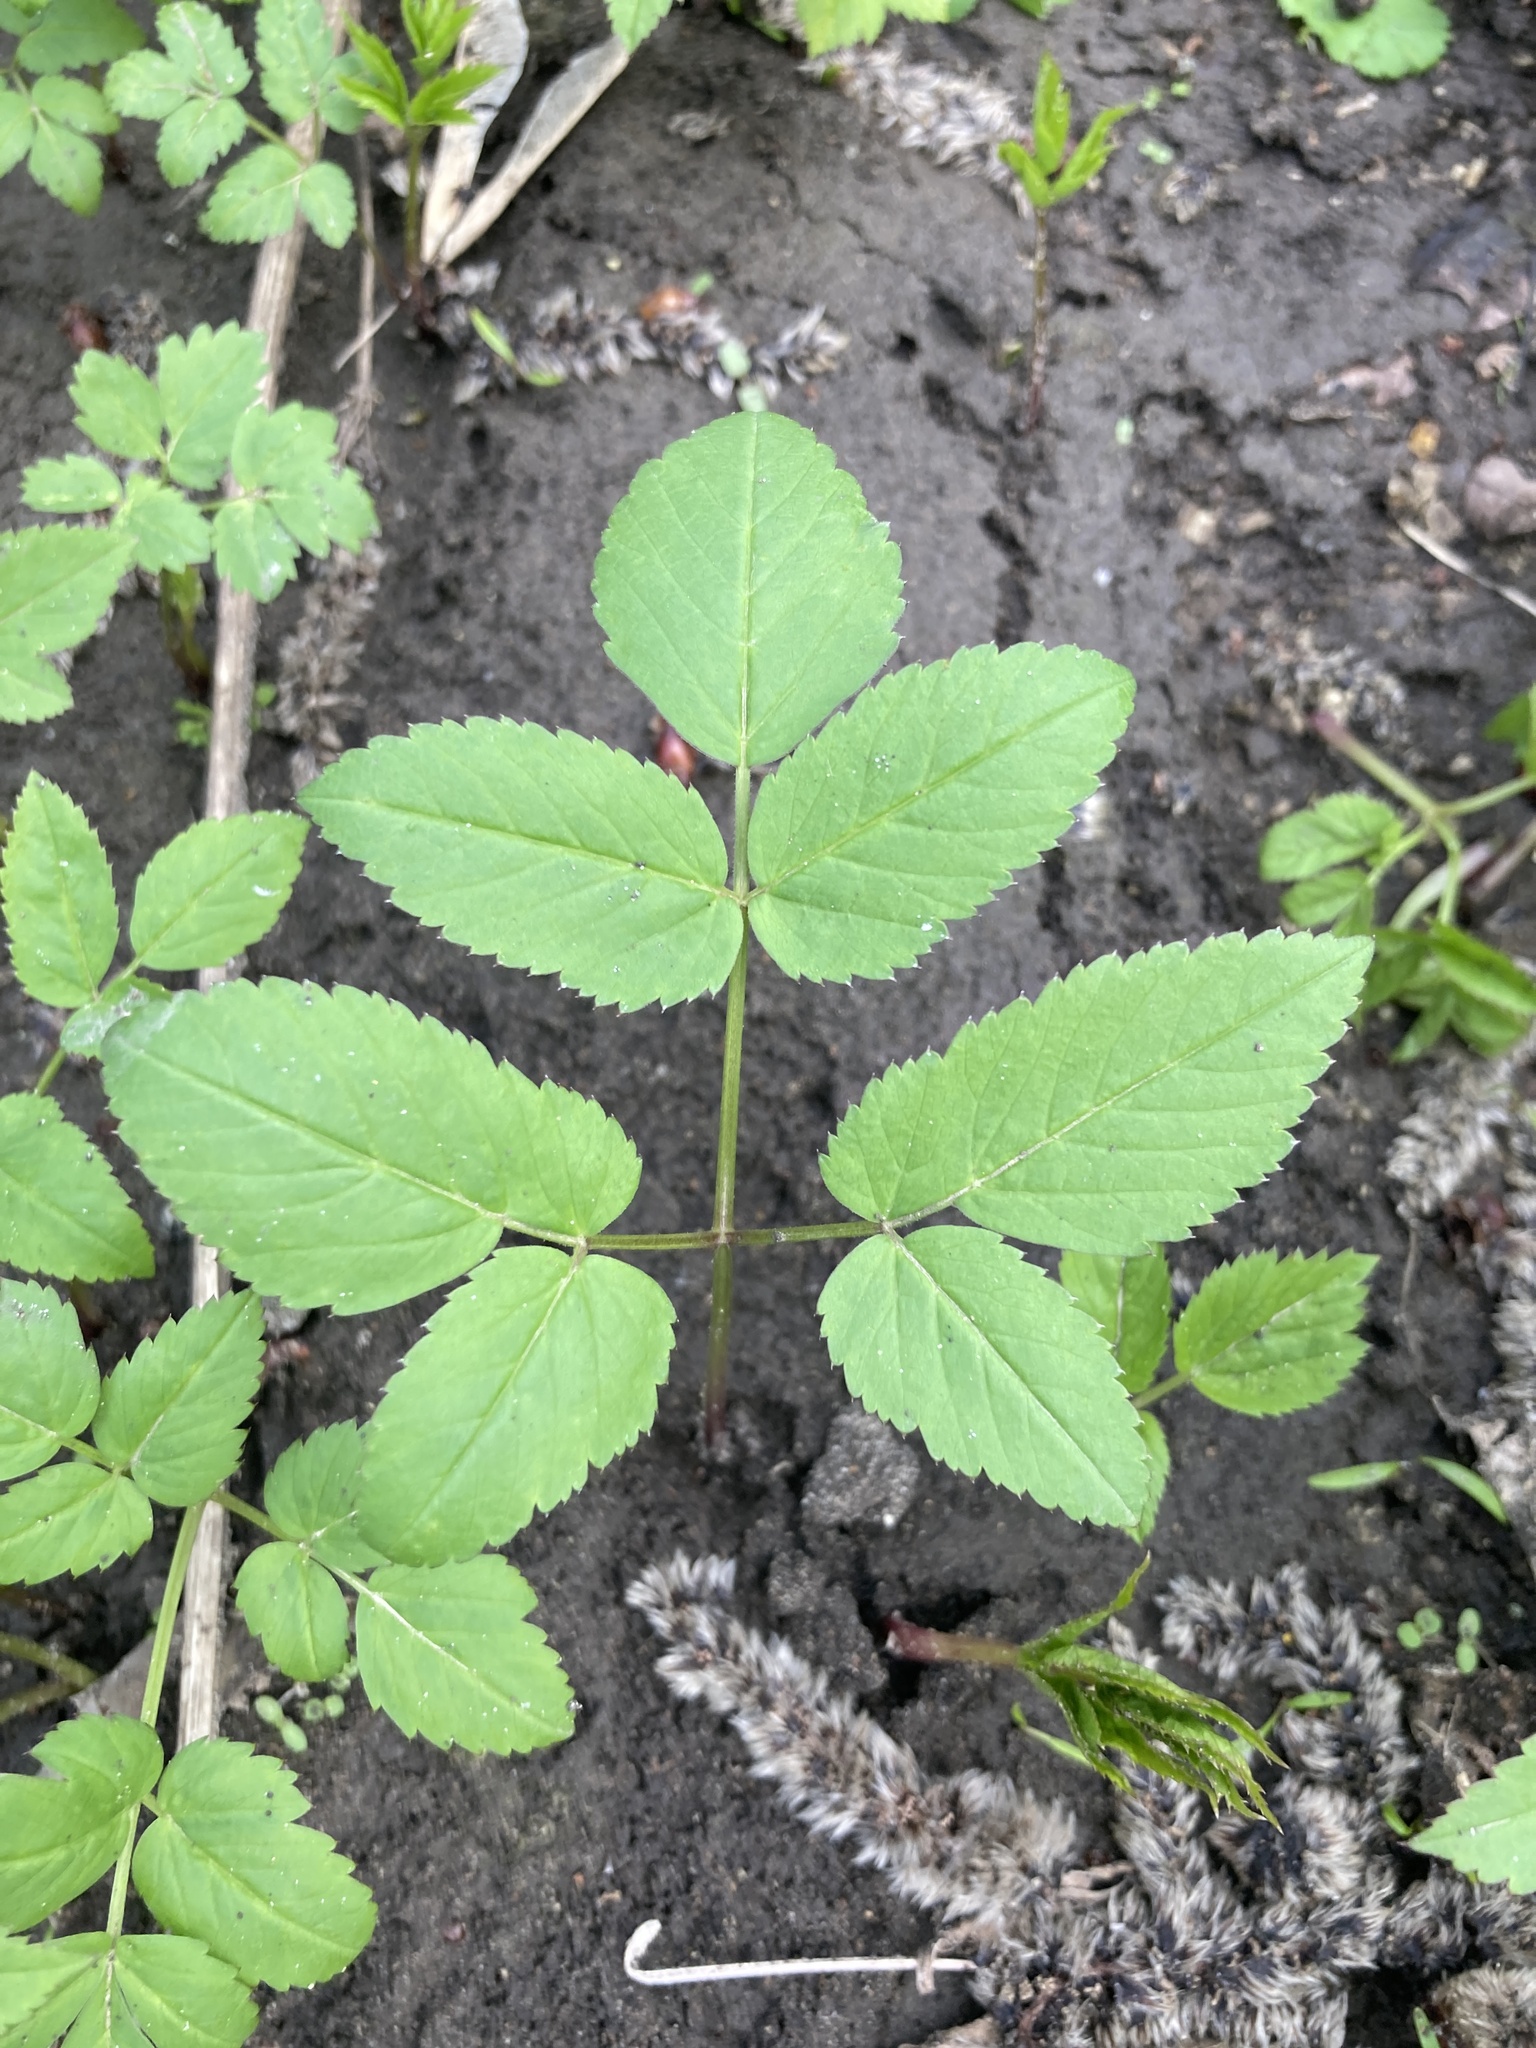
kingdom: Plantae
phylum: Tracheophyta
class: Magnoliopsida
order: Apiales
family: Apiaceae
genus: Aegopodium
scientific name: Aegopodium podagraria
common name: Ground-elder
